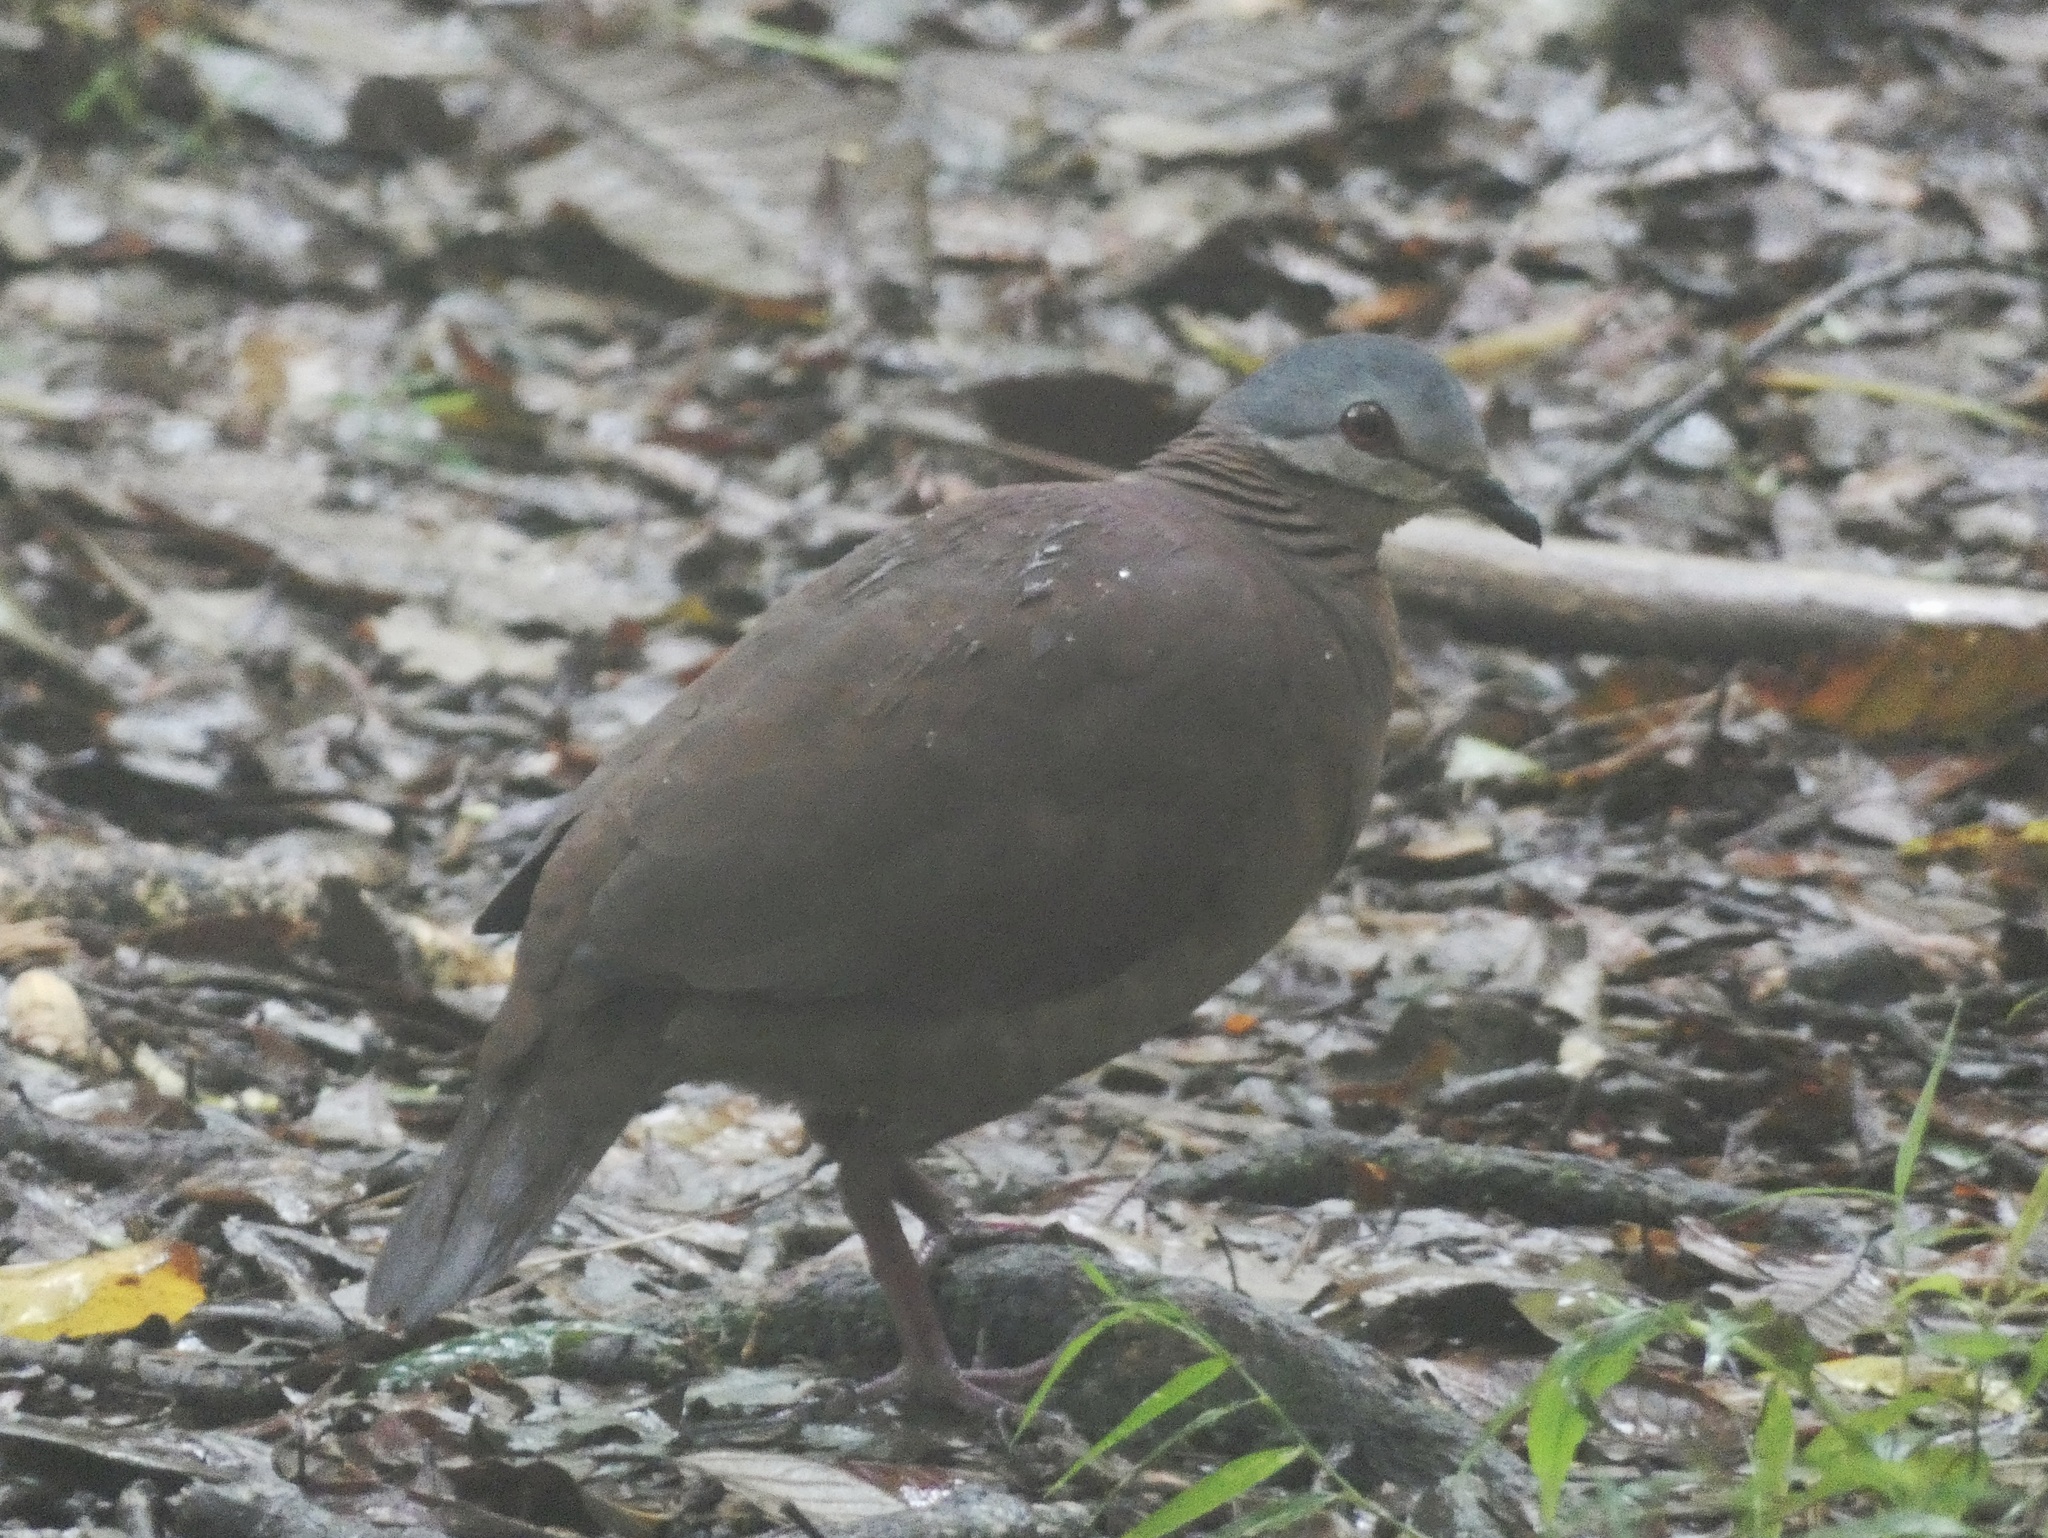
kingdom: Animalia
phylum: Chordata
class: Aves
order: Columbiformes
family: Columbidae
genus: Zentrygon
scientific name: Zentrygon chiriquensis
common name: Chiriqui quail-dove
